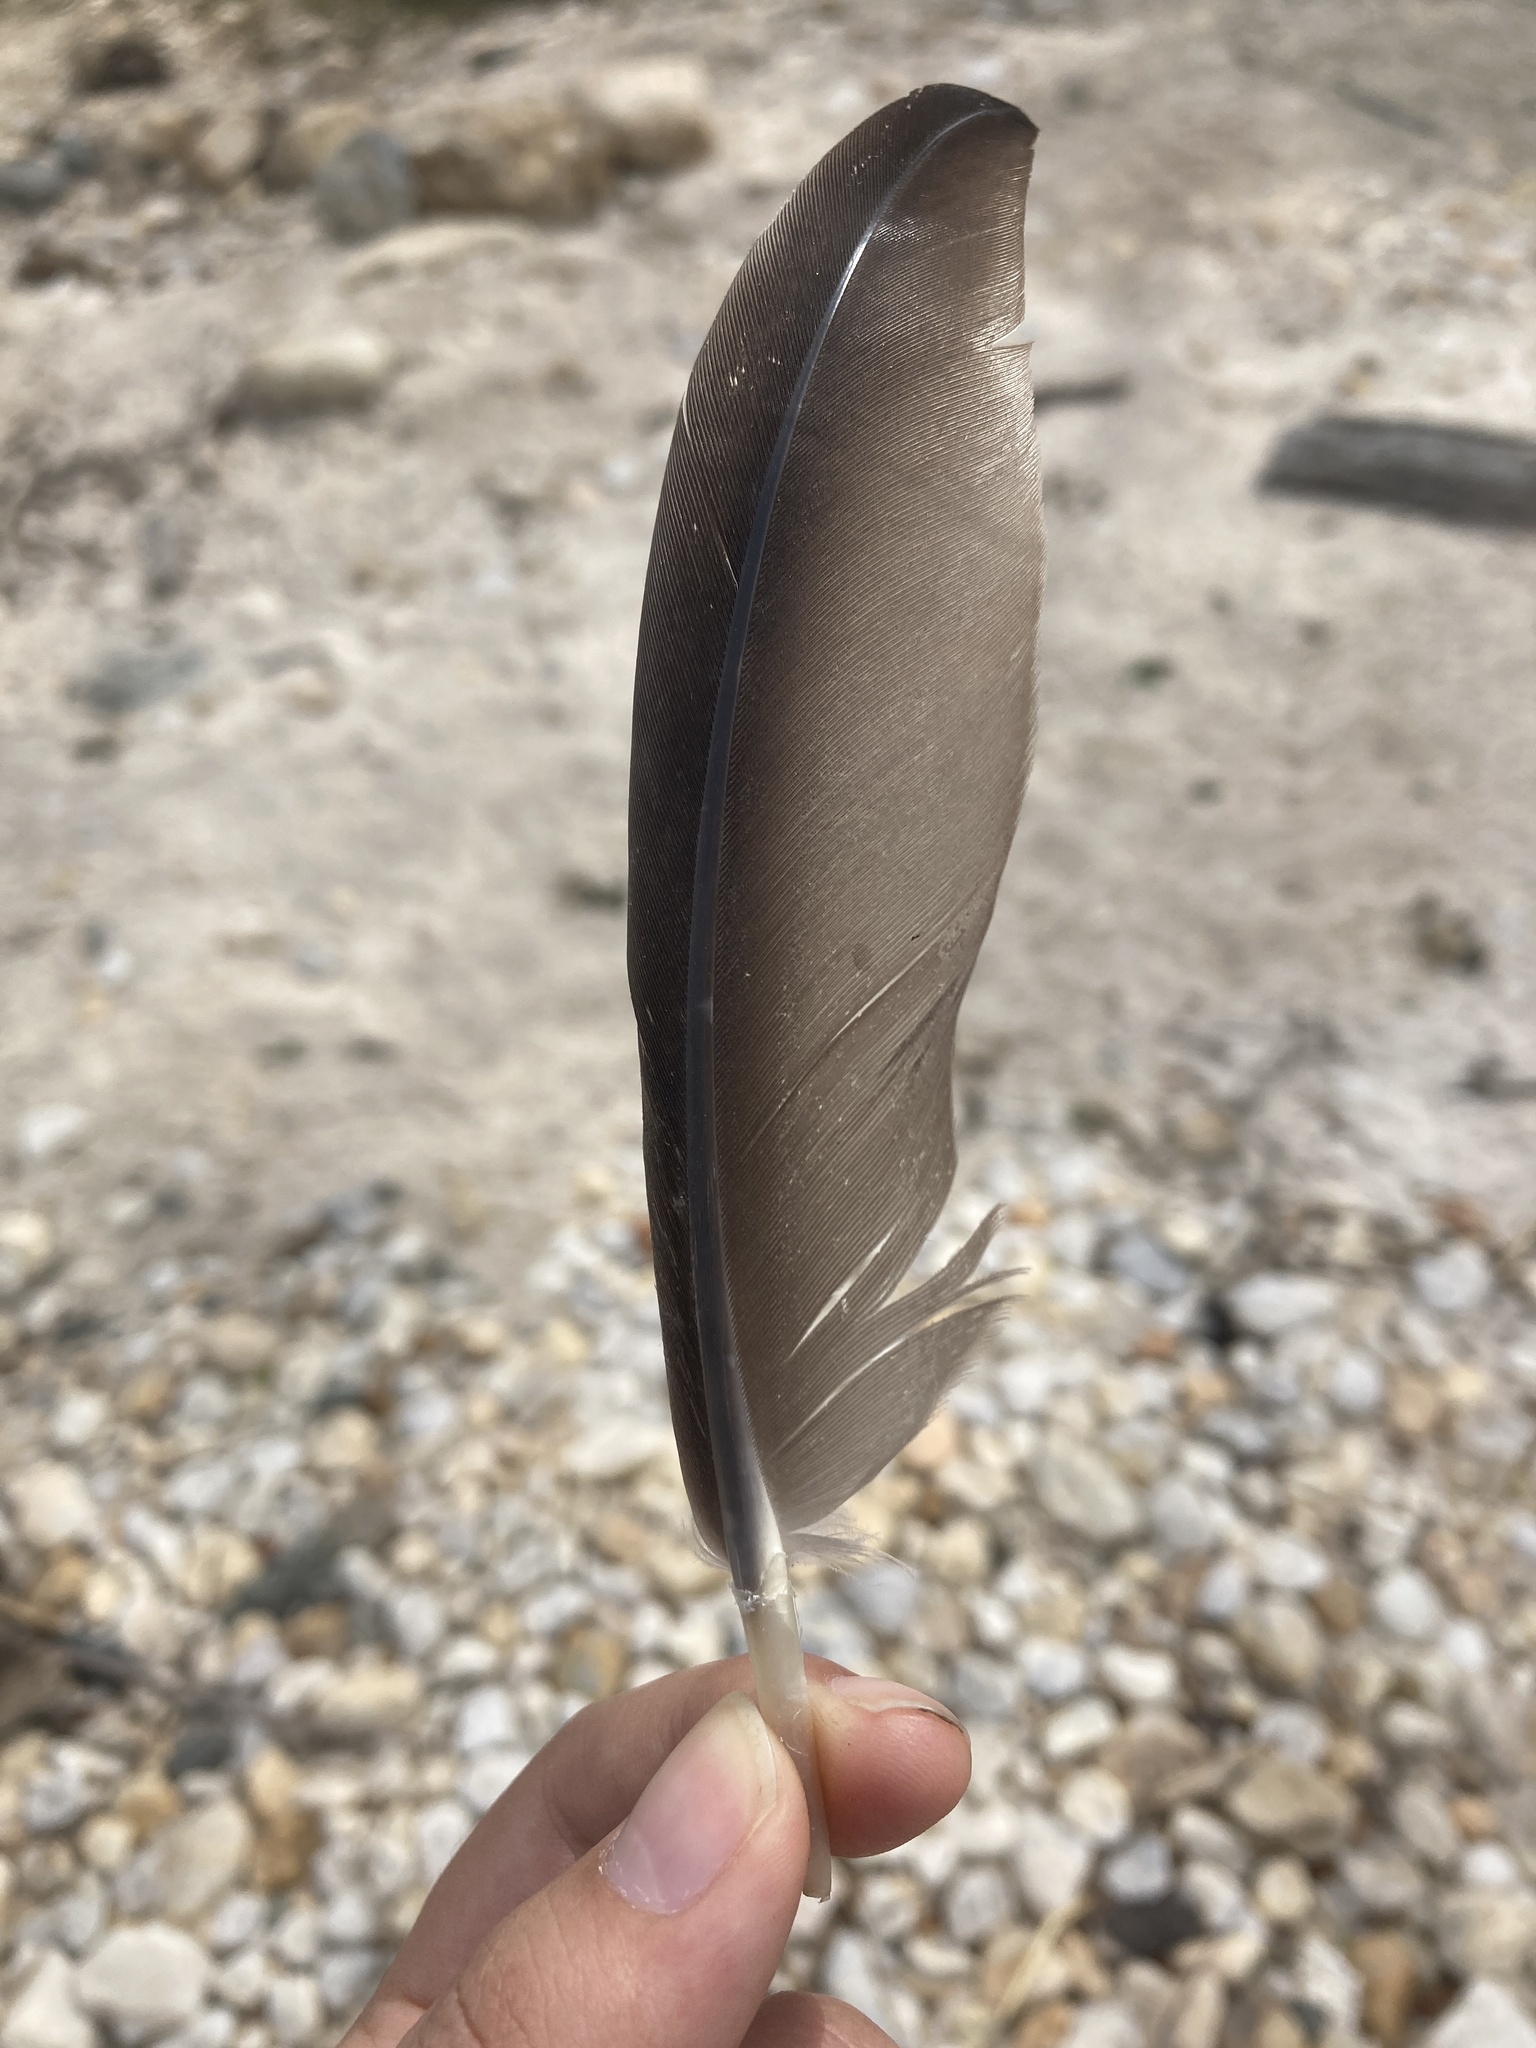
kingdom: Animalia
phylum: Chordata
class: Aves
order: Anseriformes
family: Anatidae
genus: Branta
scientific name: Branta canadensis
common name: Canada goose
